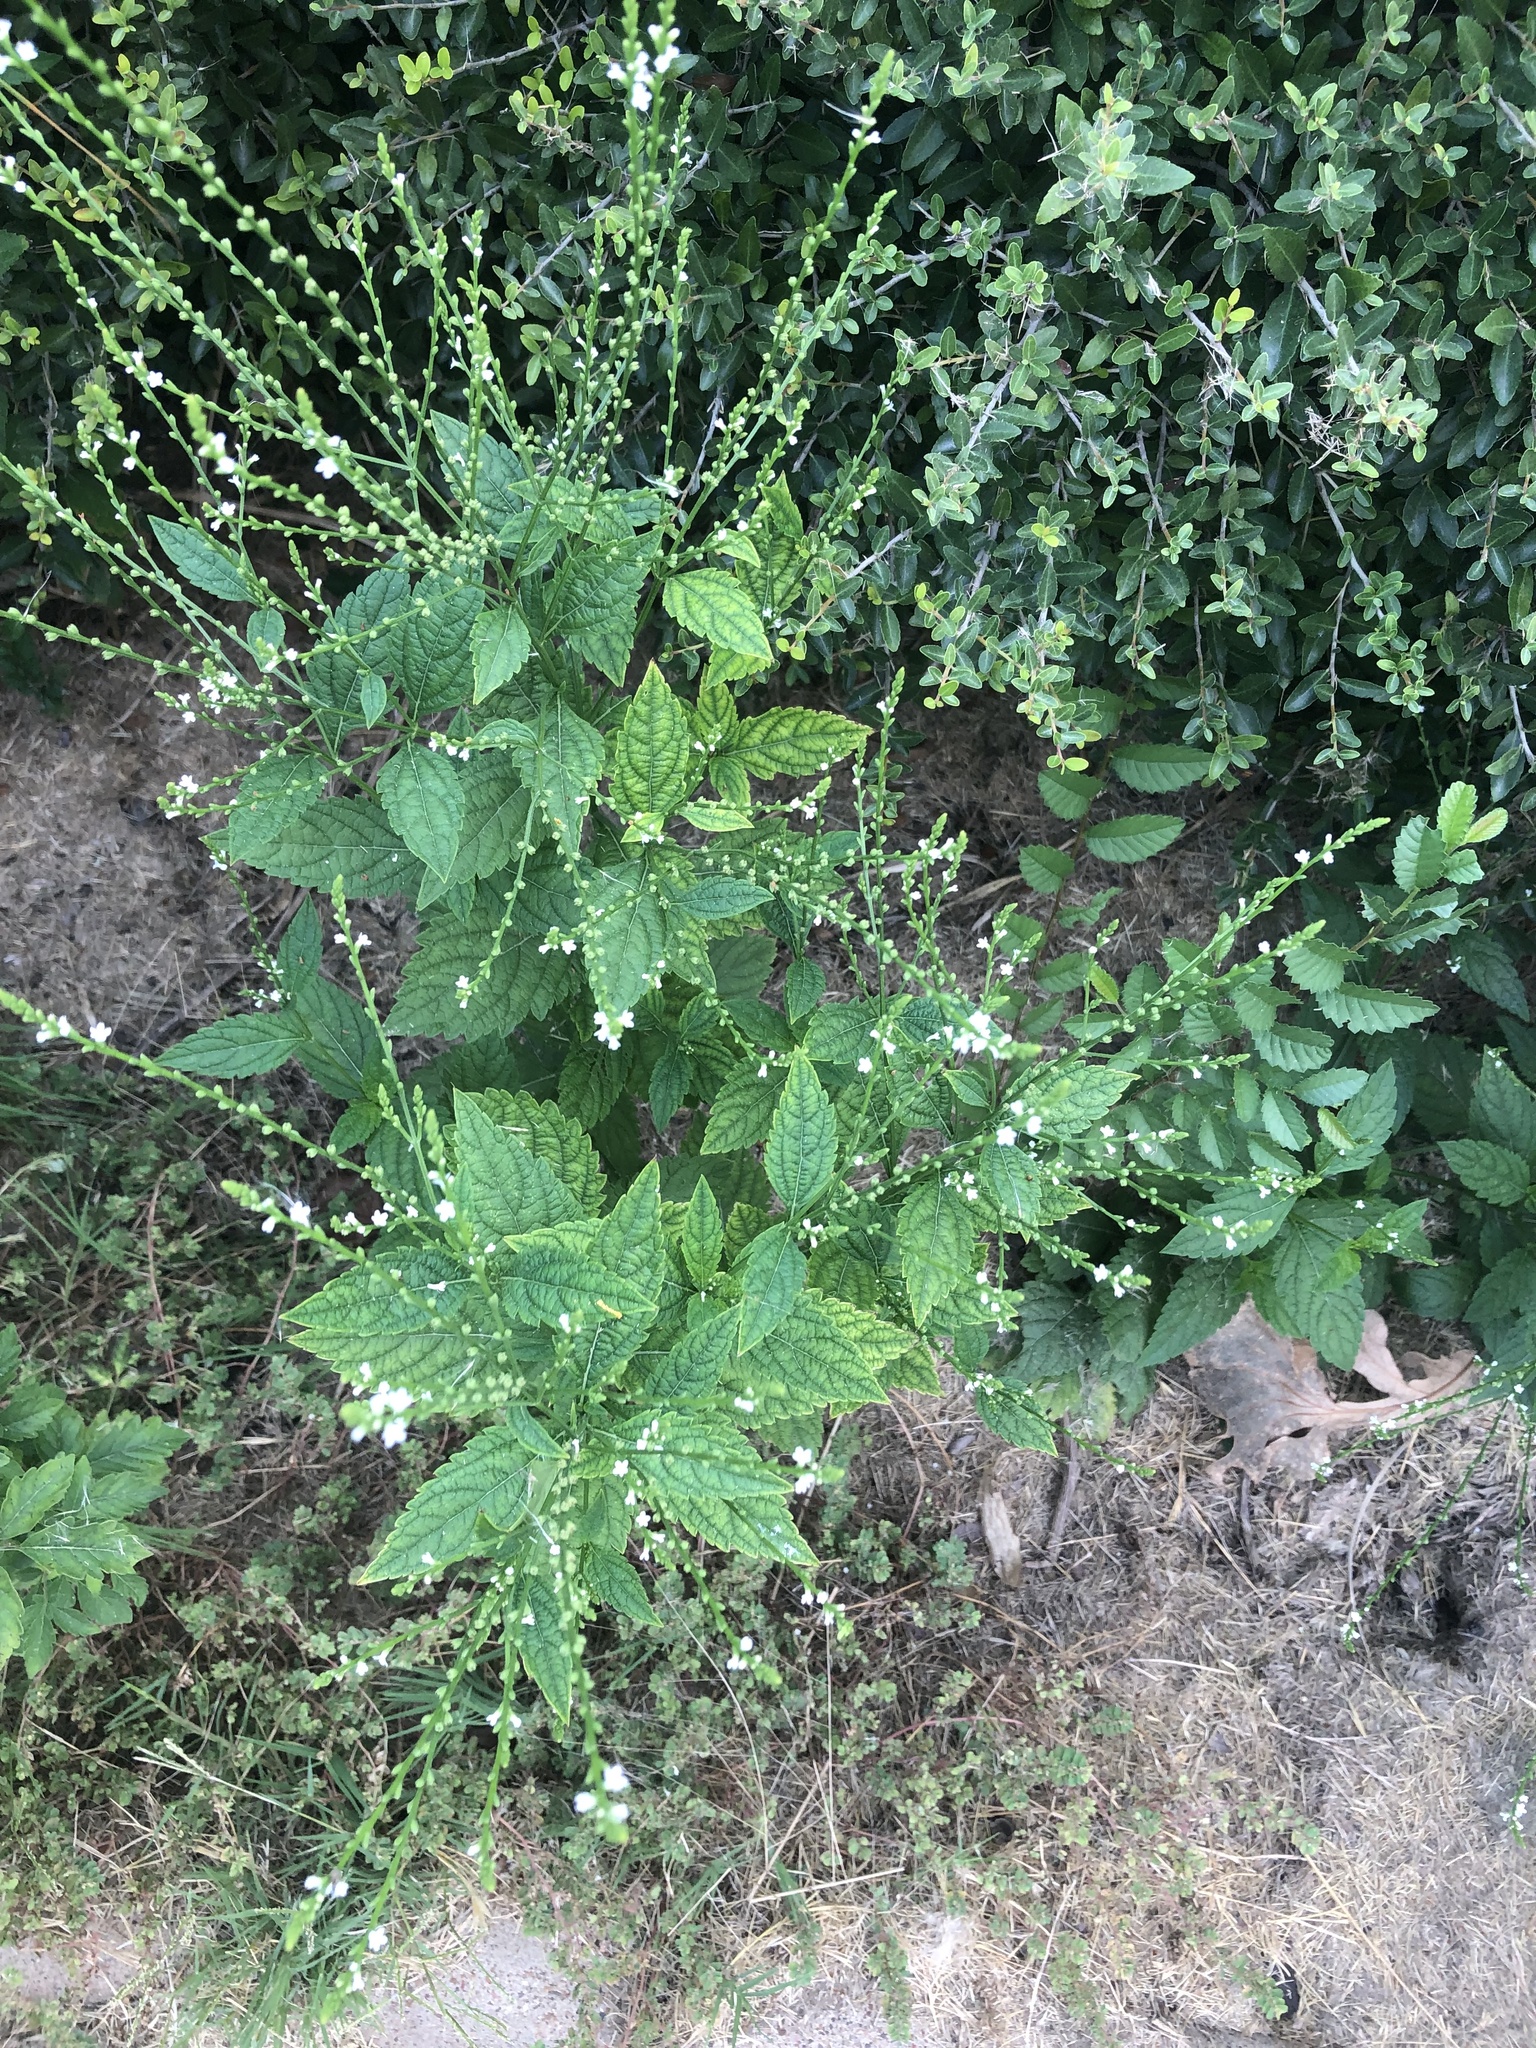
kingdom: Plantae
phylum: Tracheophyta
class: Magnoliopsida
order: Lamiales
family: Verbenaceae
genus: Verbena
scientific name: Verbena urticifolia
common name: Nettle-leaved vervain
